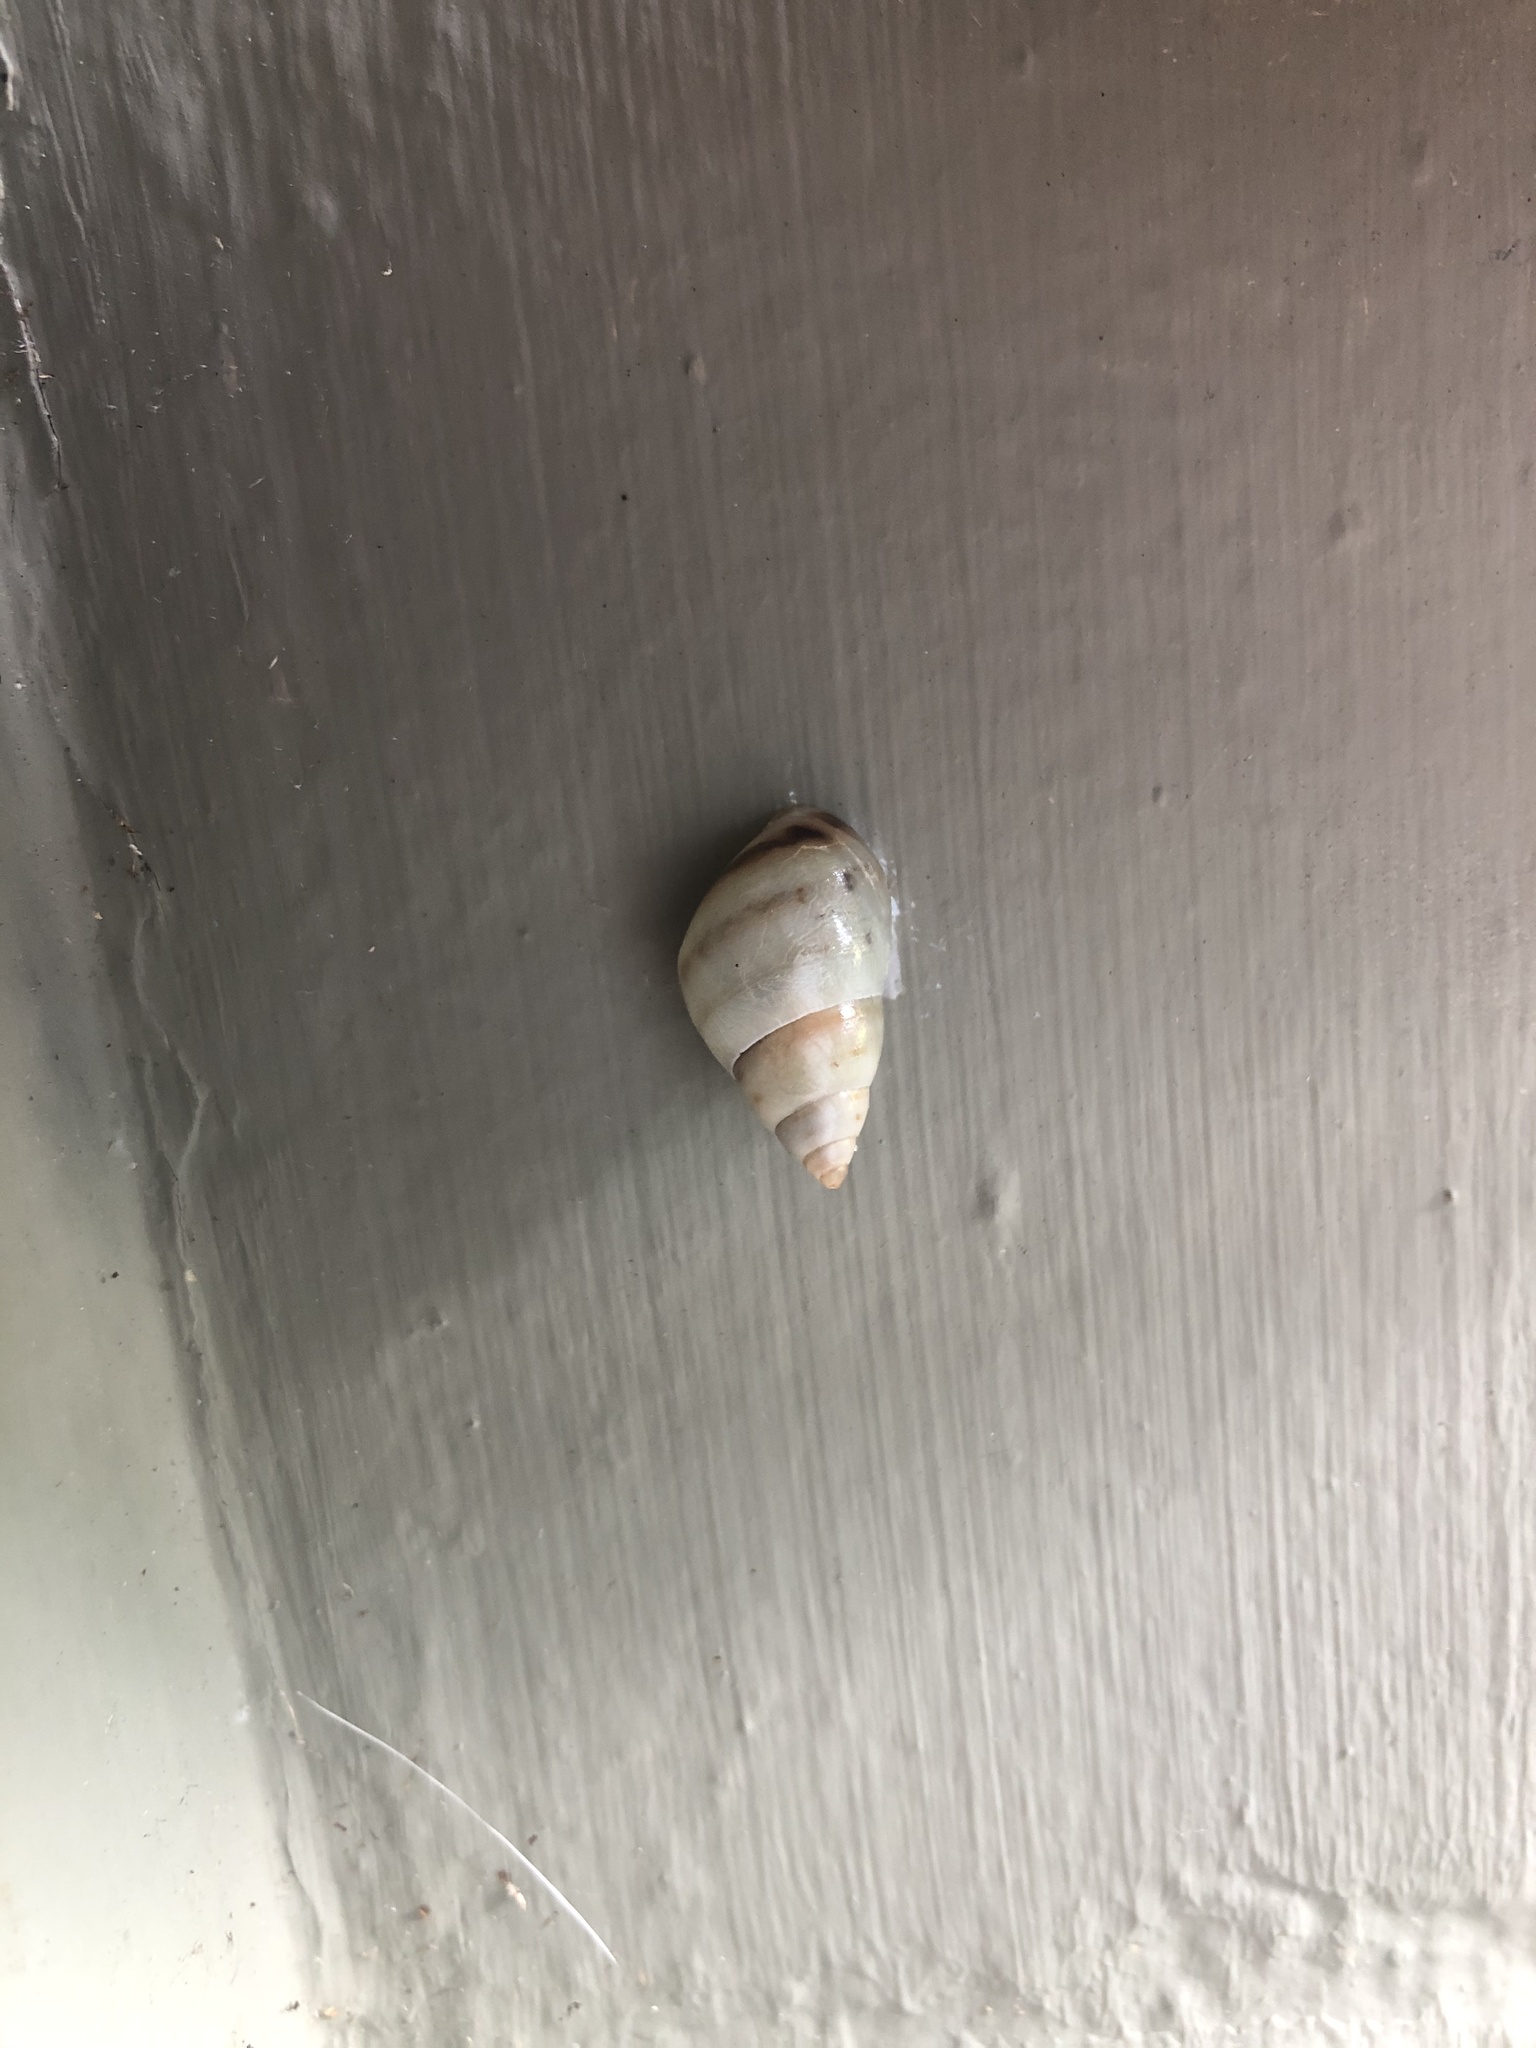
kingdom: Animalia
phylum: Mollusca
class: Gastropoda
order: Stylommatophora
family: Bulimulidae
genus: Drymaeus
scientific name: Drymaeus dormani
